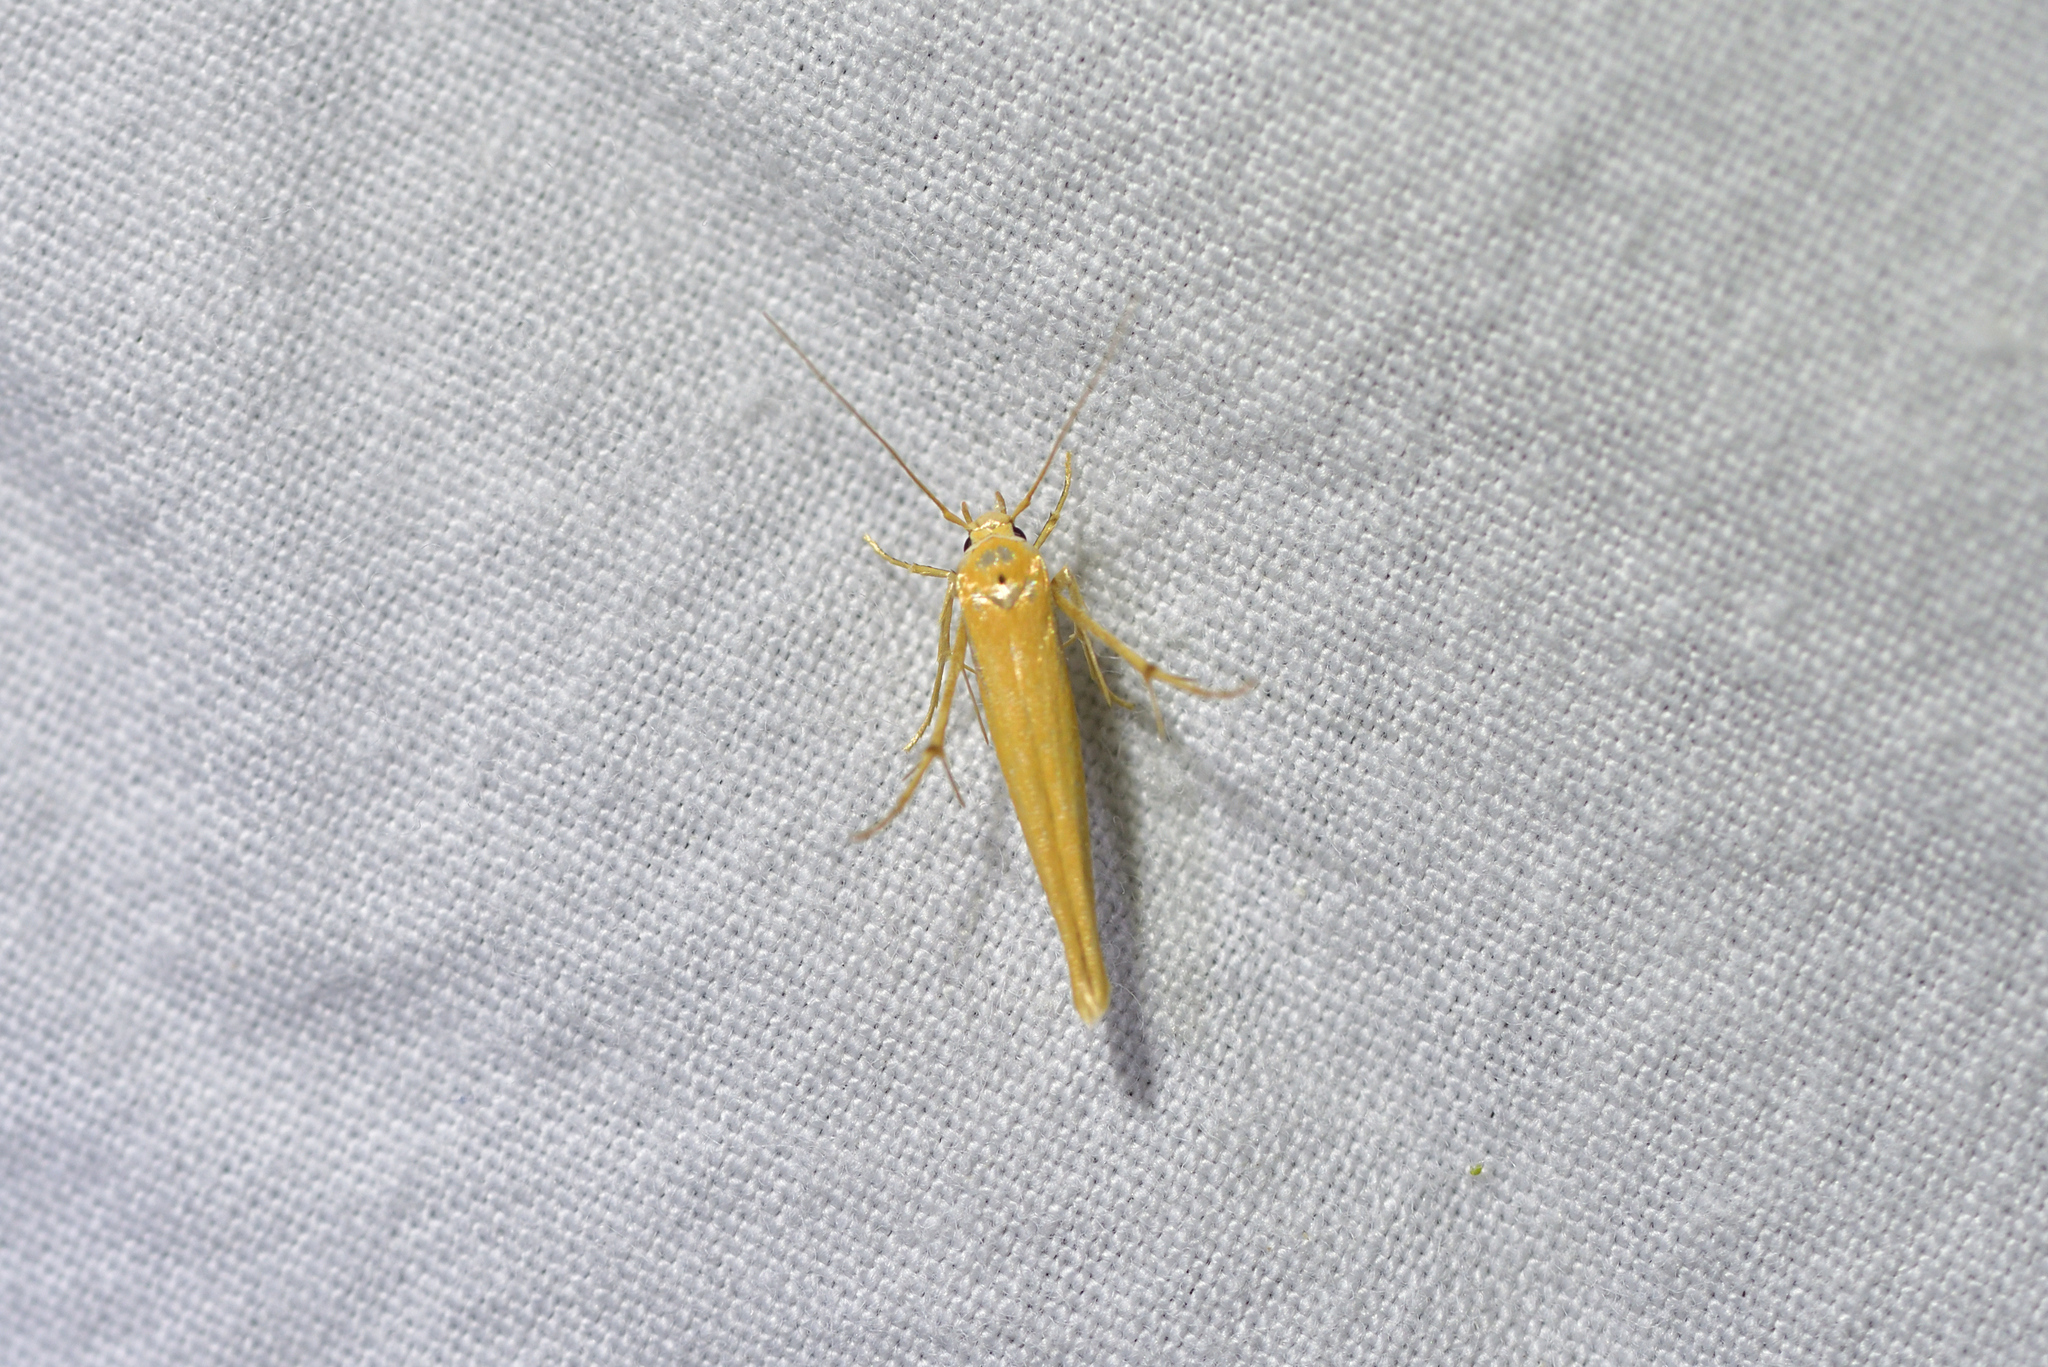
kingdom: Animalia
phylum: Arthropoda
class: Insecta
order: Lepidoptera
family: Stathmopodidae
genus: Stathmopoda
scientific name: Stathmopoda skelloni
